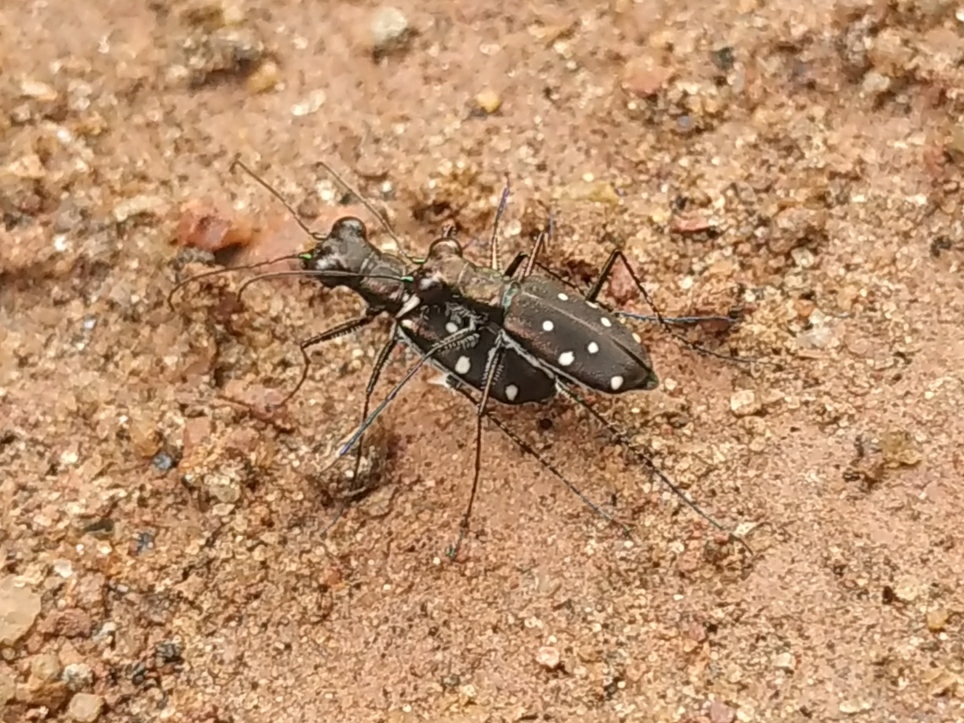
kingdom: Animalia
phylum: Arthropoda
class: Insecta
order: Coleoptera
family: Carabidae
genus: Cylindera
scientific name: Cylindera collicia
